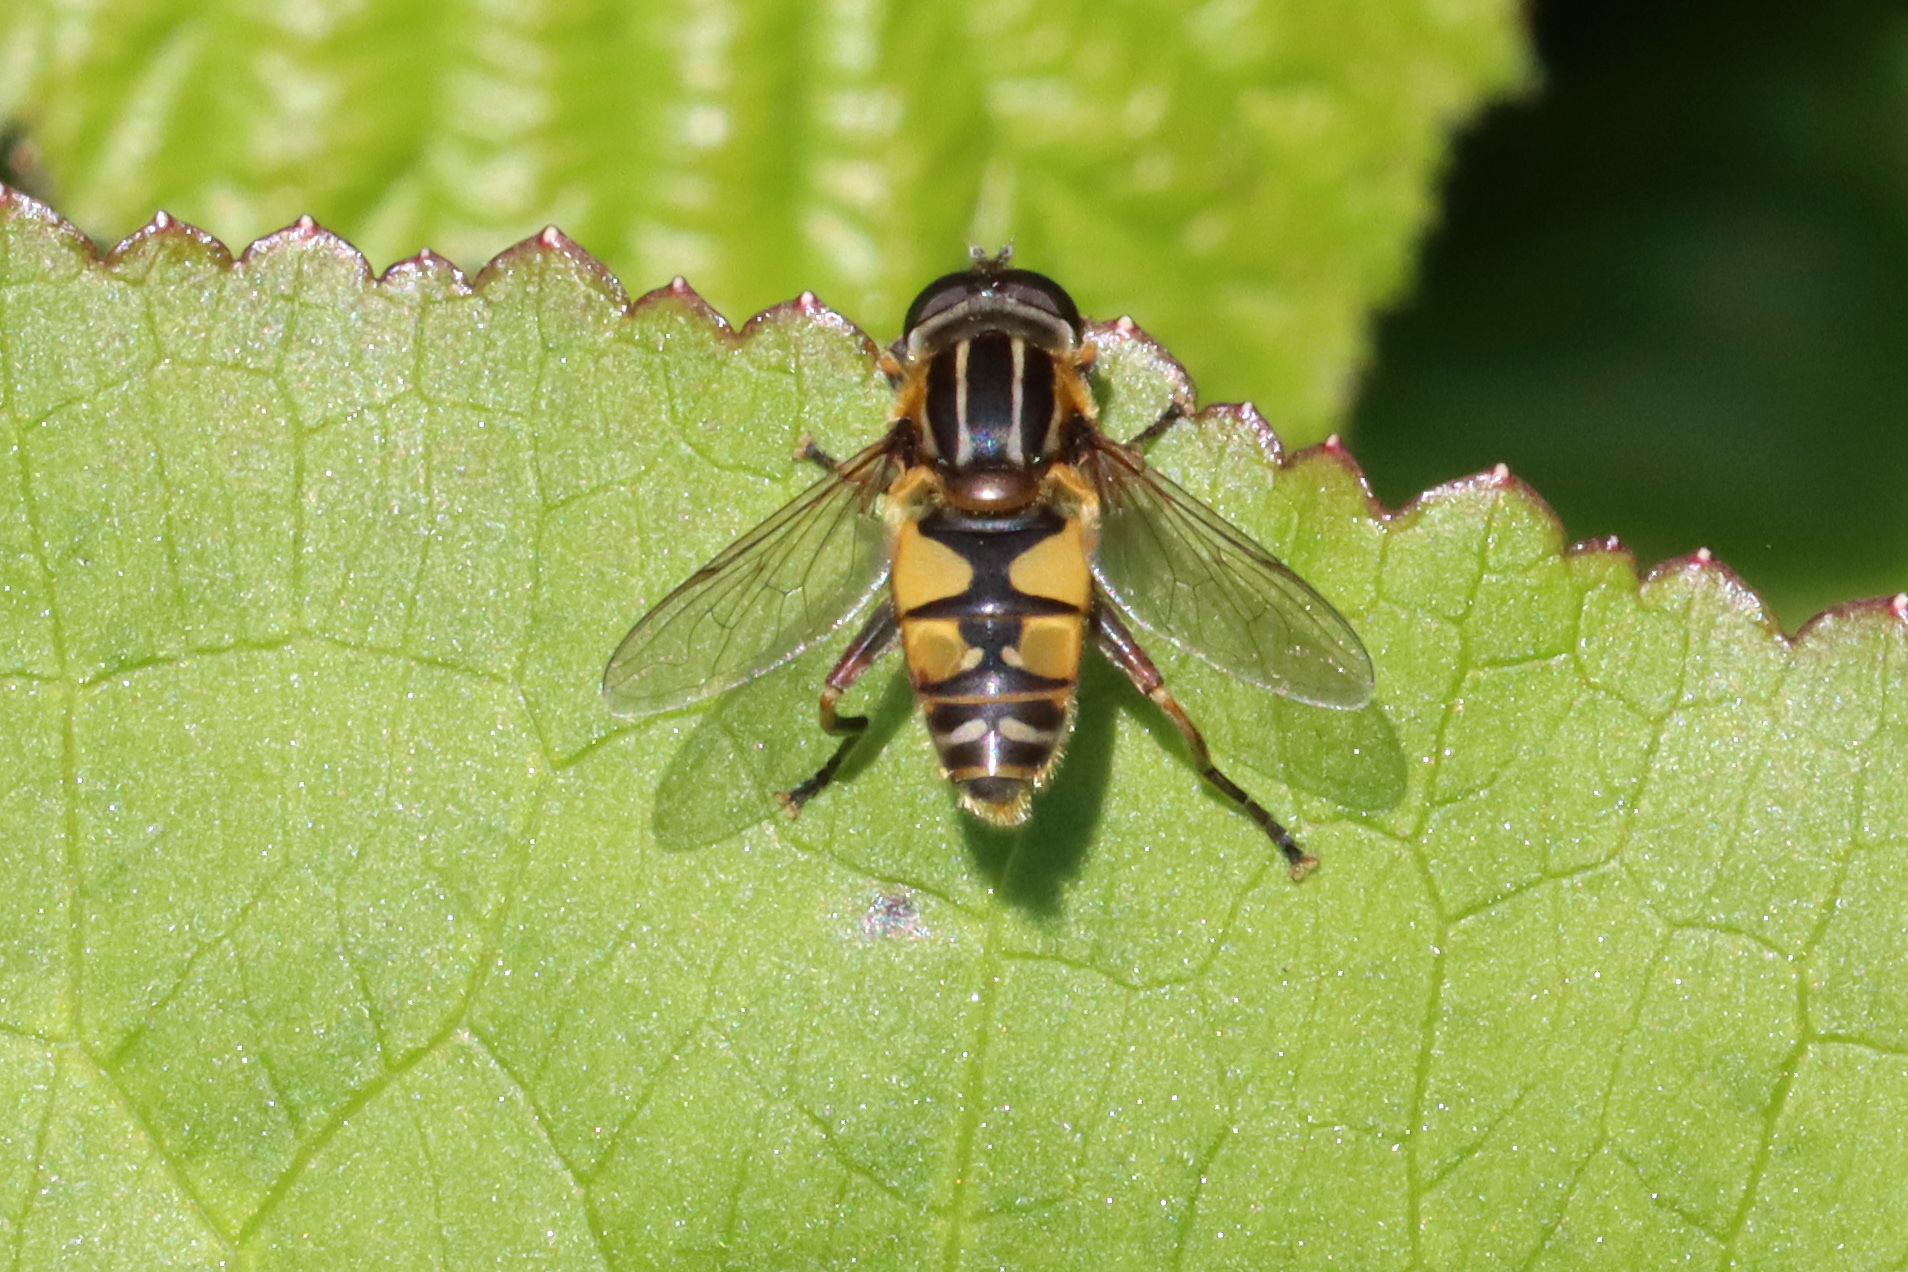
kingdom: Animalia
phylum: Arthropoda
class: Insecta
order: Diptera
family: Syrphidae
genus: Helophilus
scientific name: Helophilus pendulus
